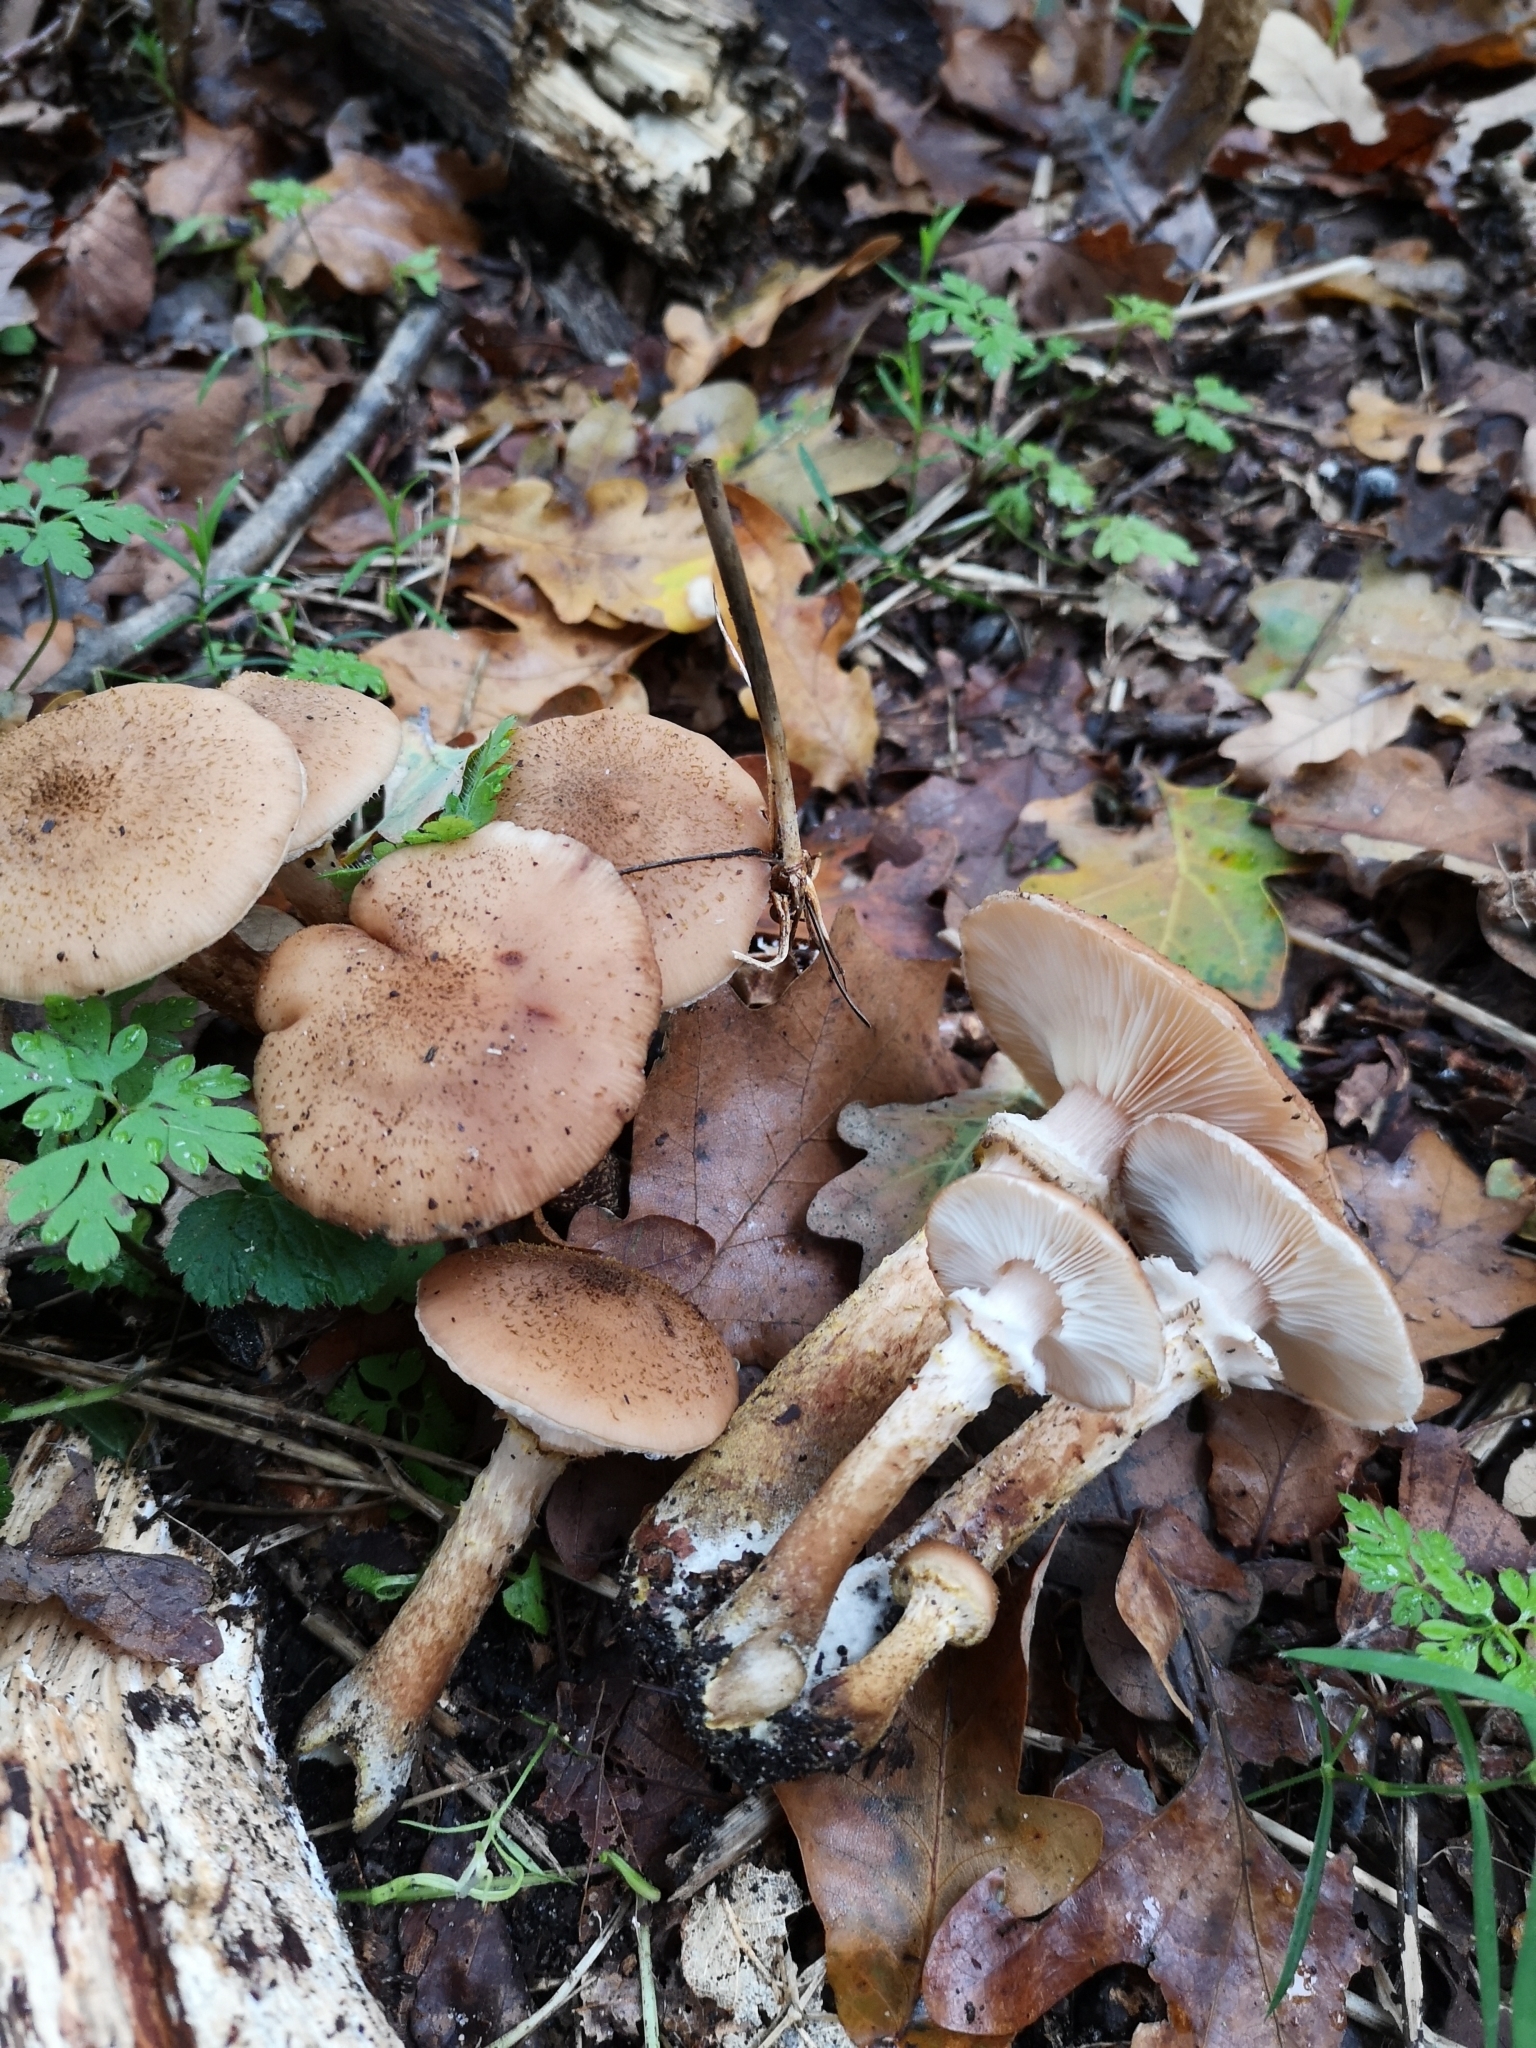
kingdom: Fungi
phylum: Basidiomycota
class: Agaricomycetes
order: Agaricales
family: Physalacriaceae
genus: Armillaria
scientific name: Armillaria mellea
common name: Honey fungus
